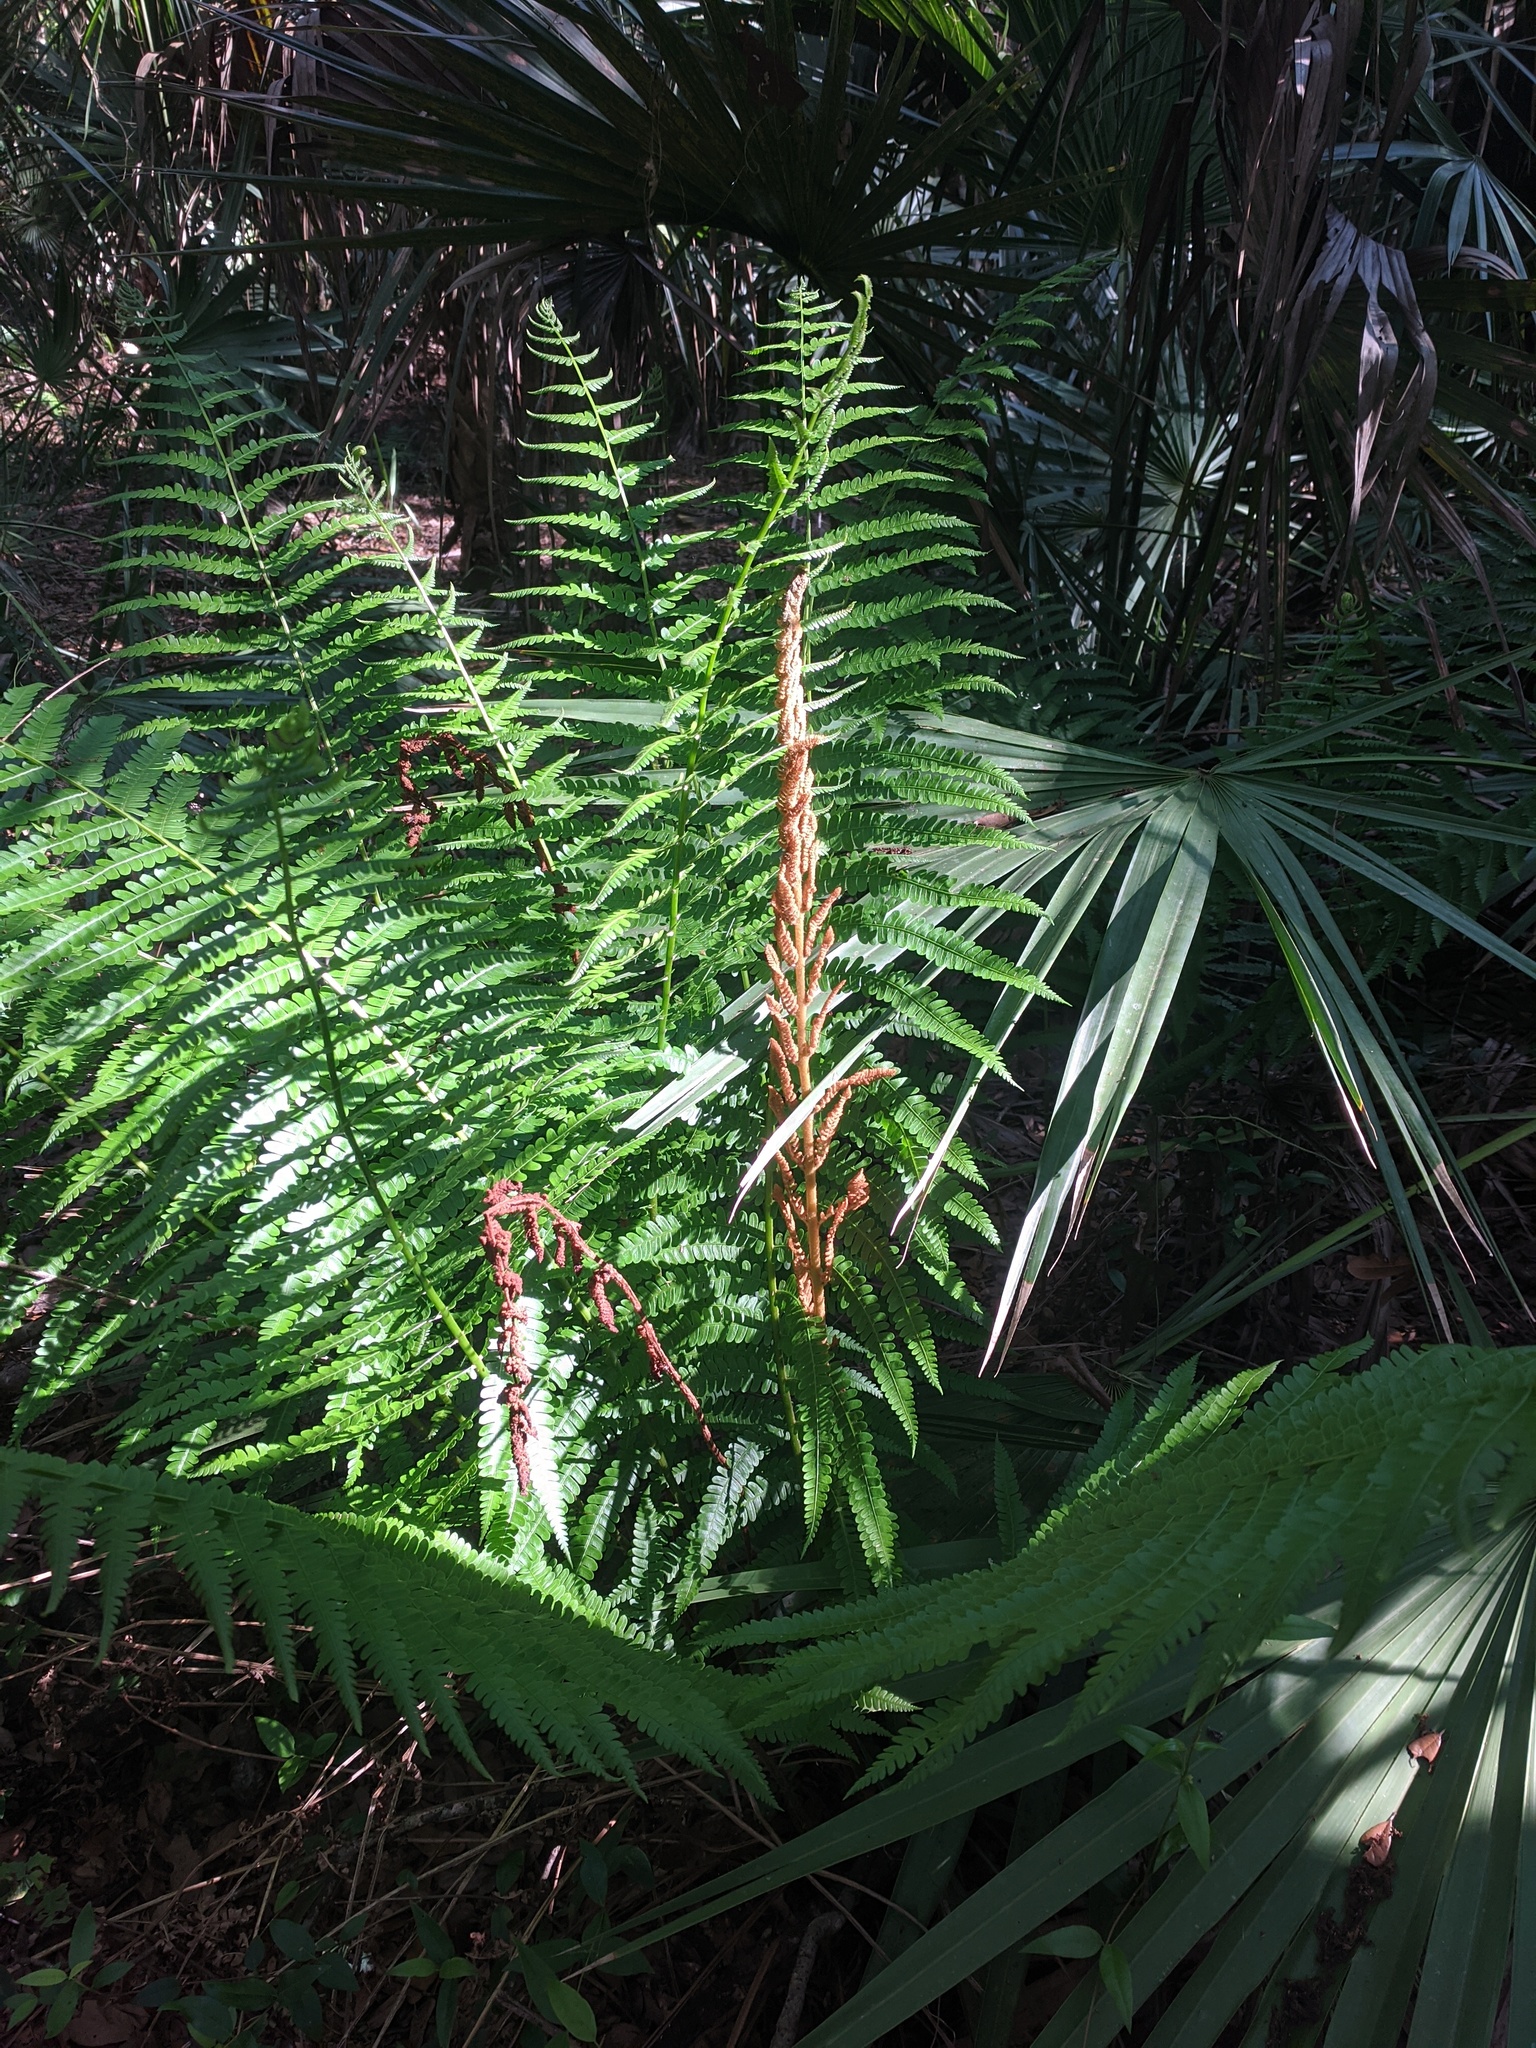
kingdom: Plantae
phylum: Tracheophyta
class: Polypodiopsida
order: Osmundales
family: Osmundaceae
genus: Osmundastrum
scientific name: Osmundastrum cinnamomeum
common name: Cinnamon fern
